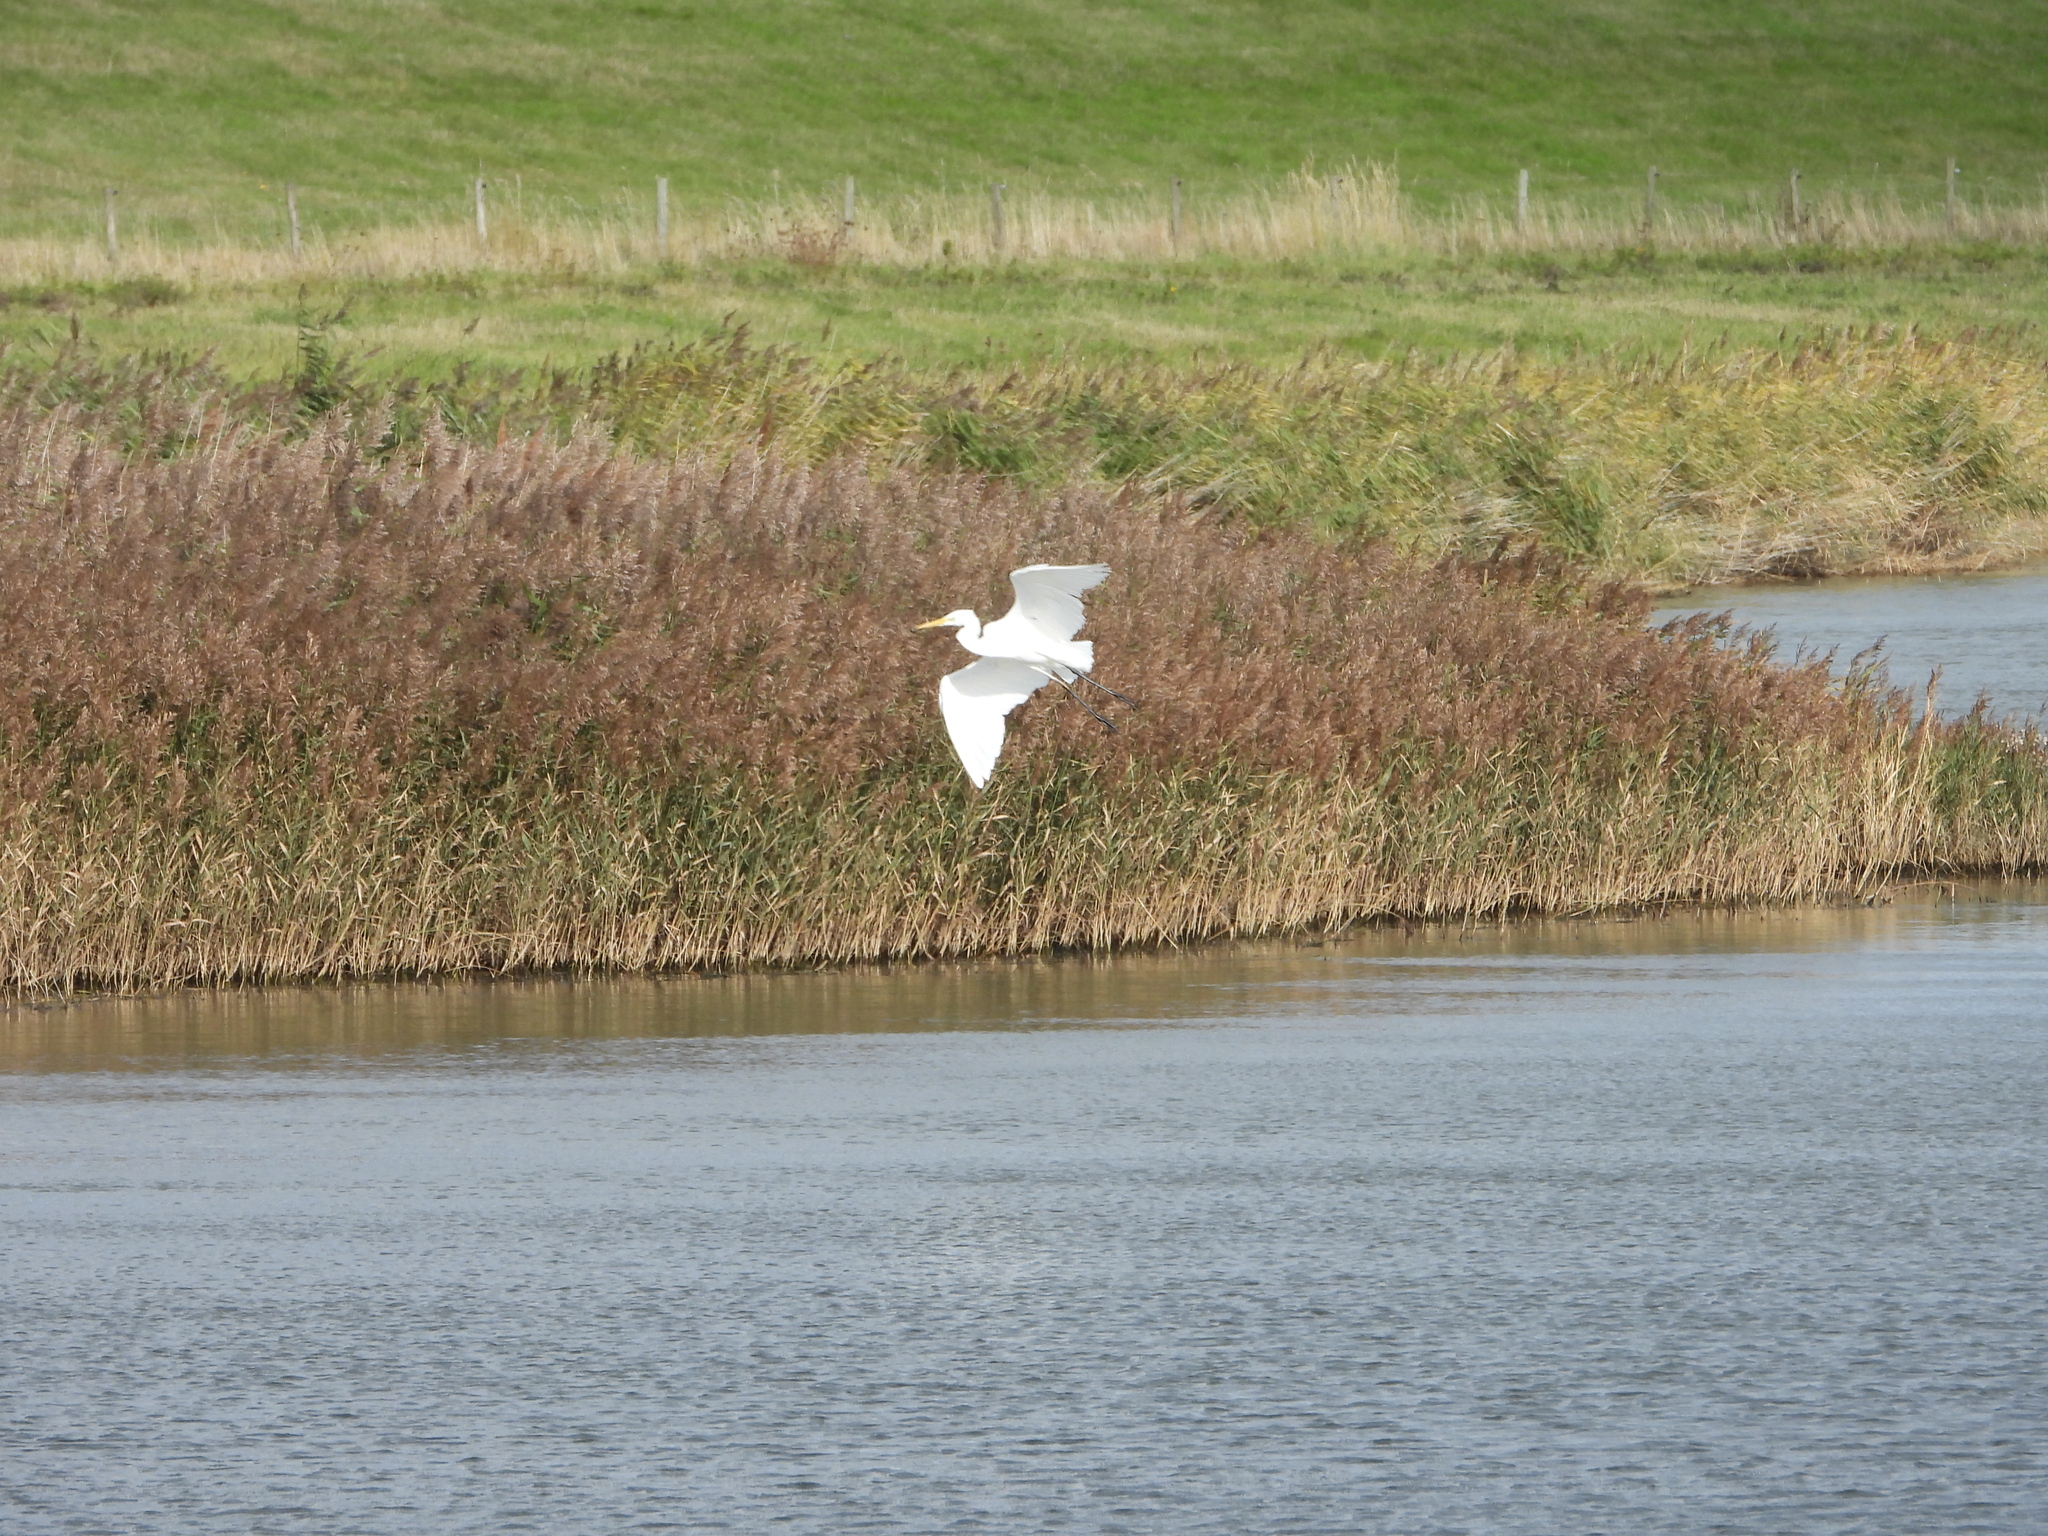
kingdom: Animalia
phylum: Chordata
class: Aves
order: Pelecaniformes
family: Ardeidae
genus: Ardea
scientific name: Ardea alba
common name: Great egret
